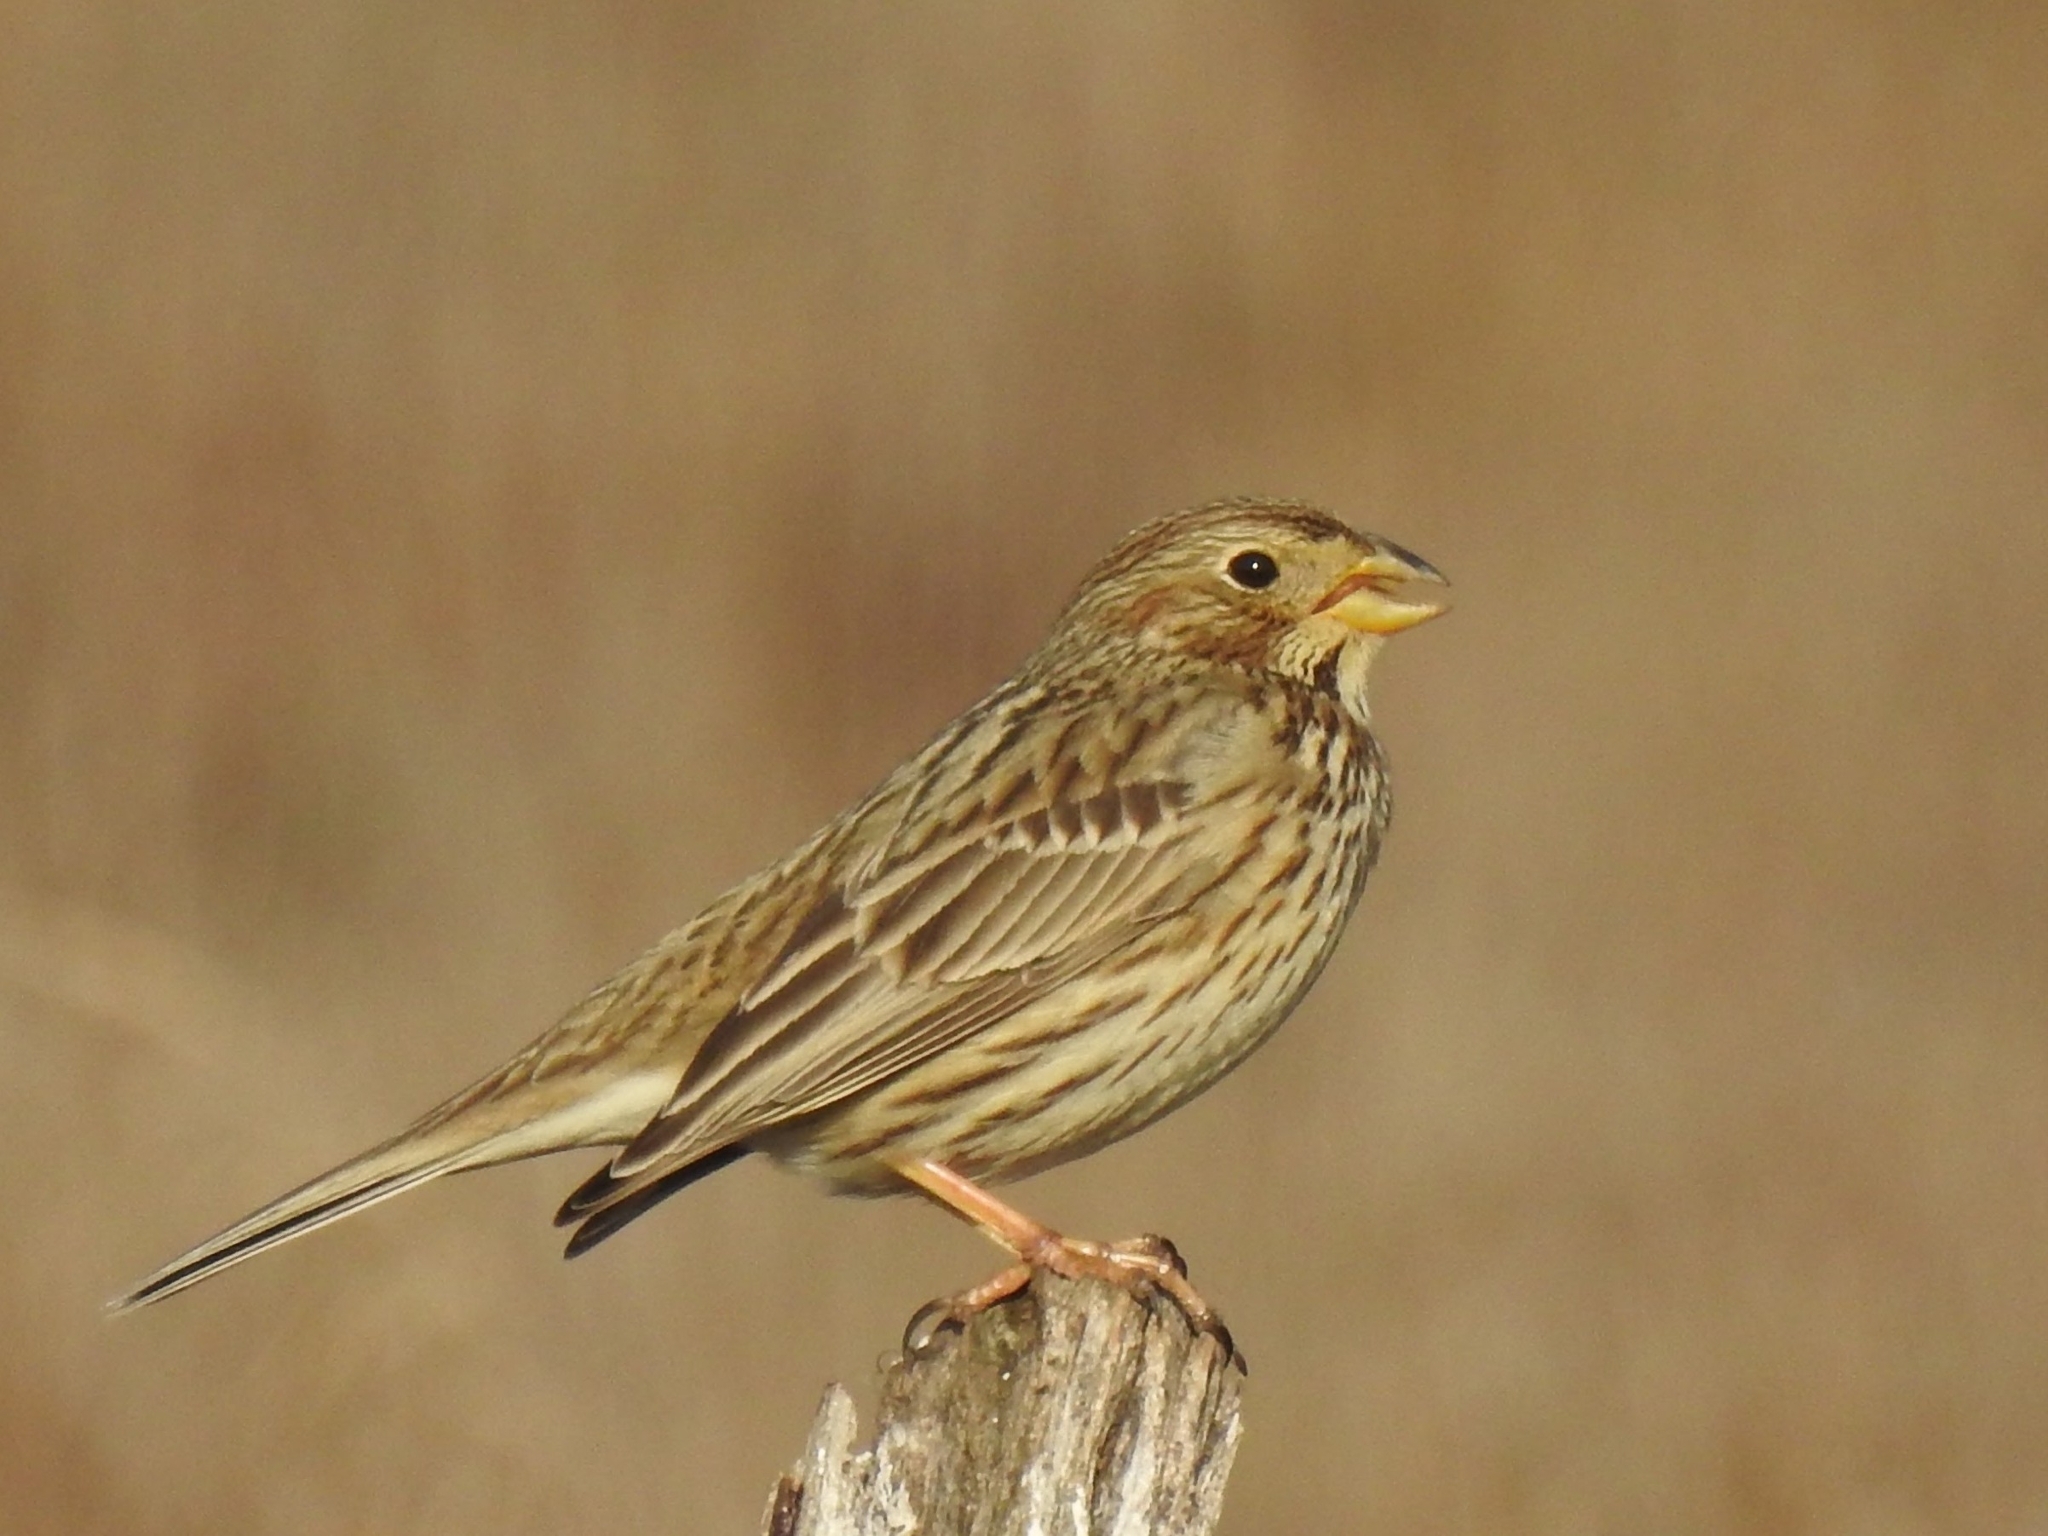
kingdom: Animalia
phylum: Chordata
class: Aves
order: Passeriformes
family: Emberizidae
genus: Emberiza
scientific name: Emberiza calandra
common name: Corn bunting
